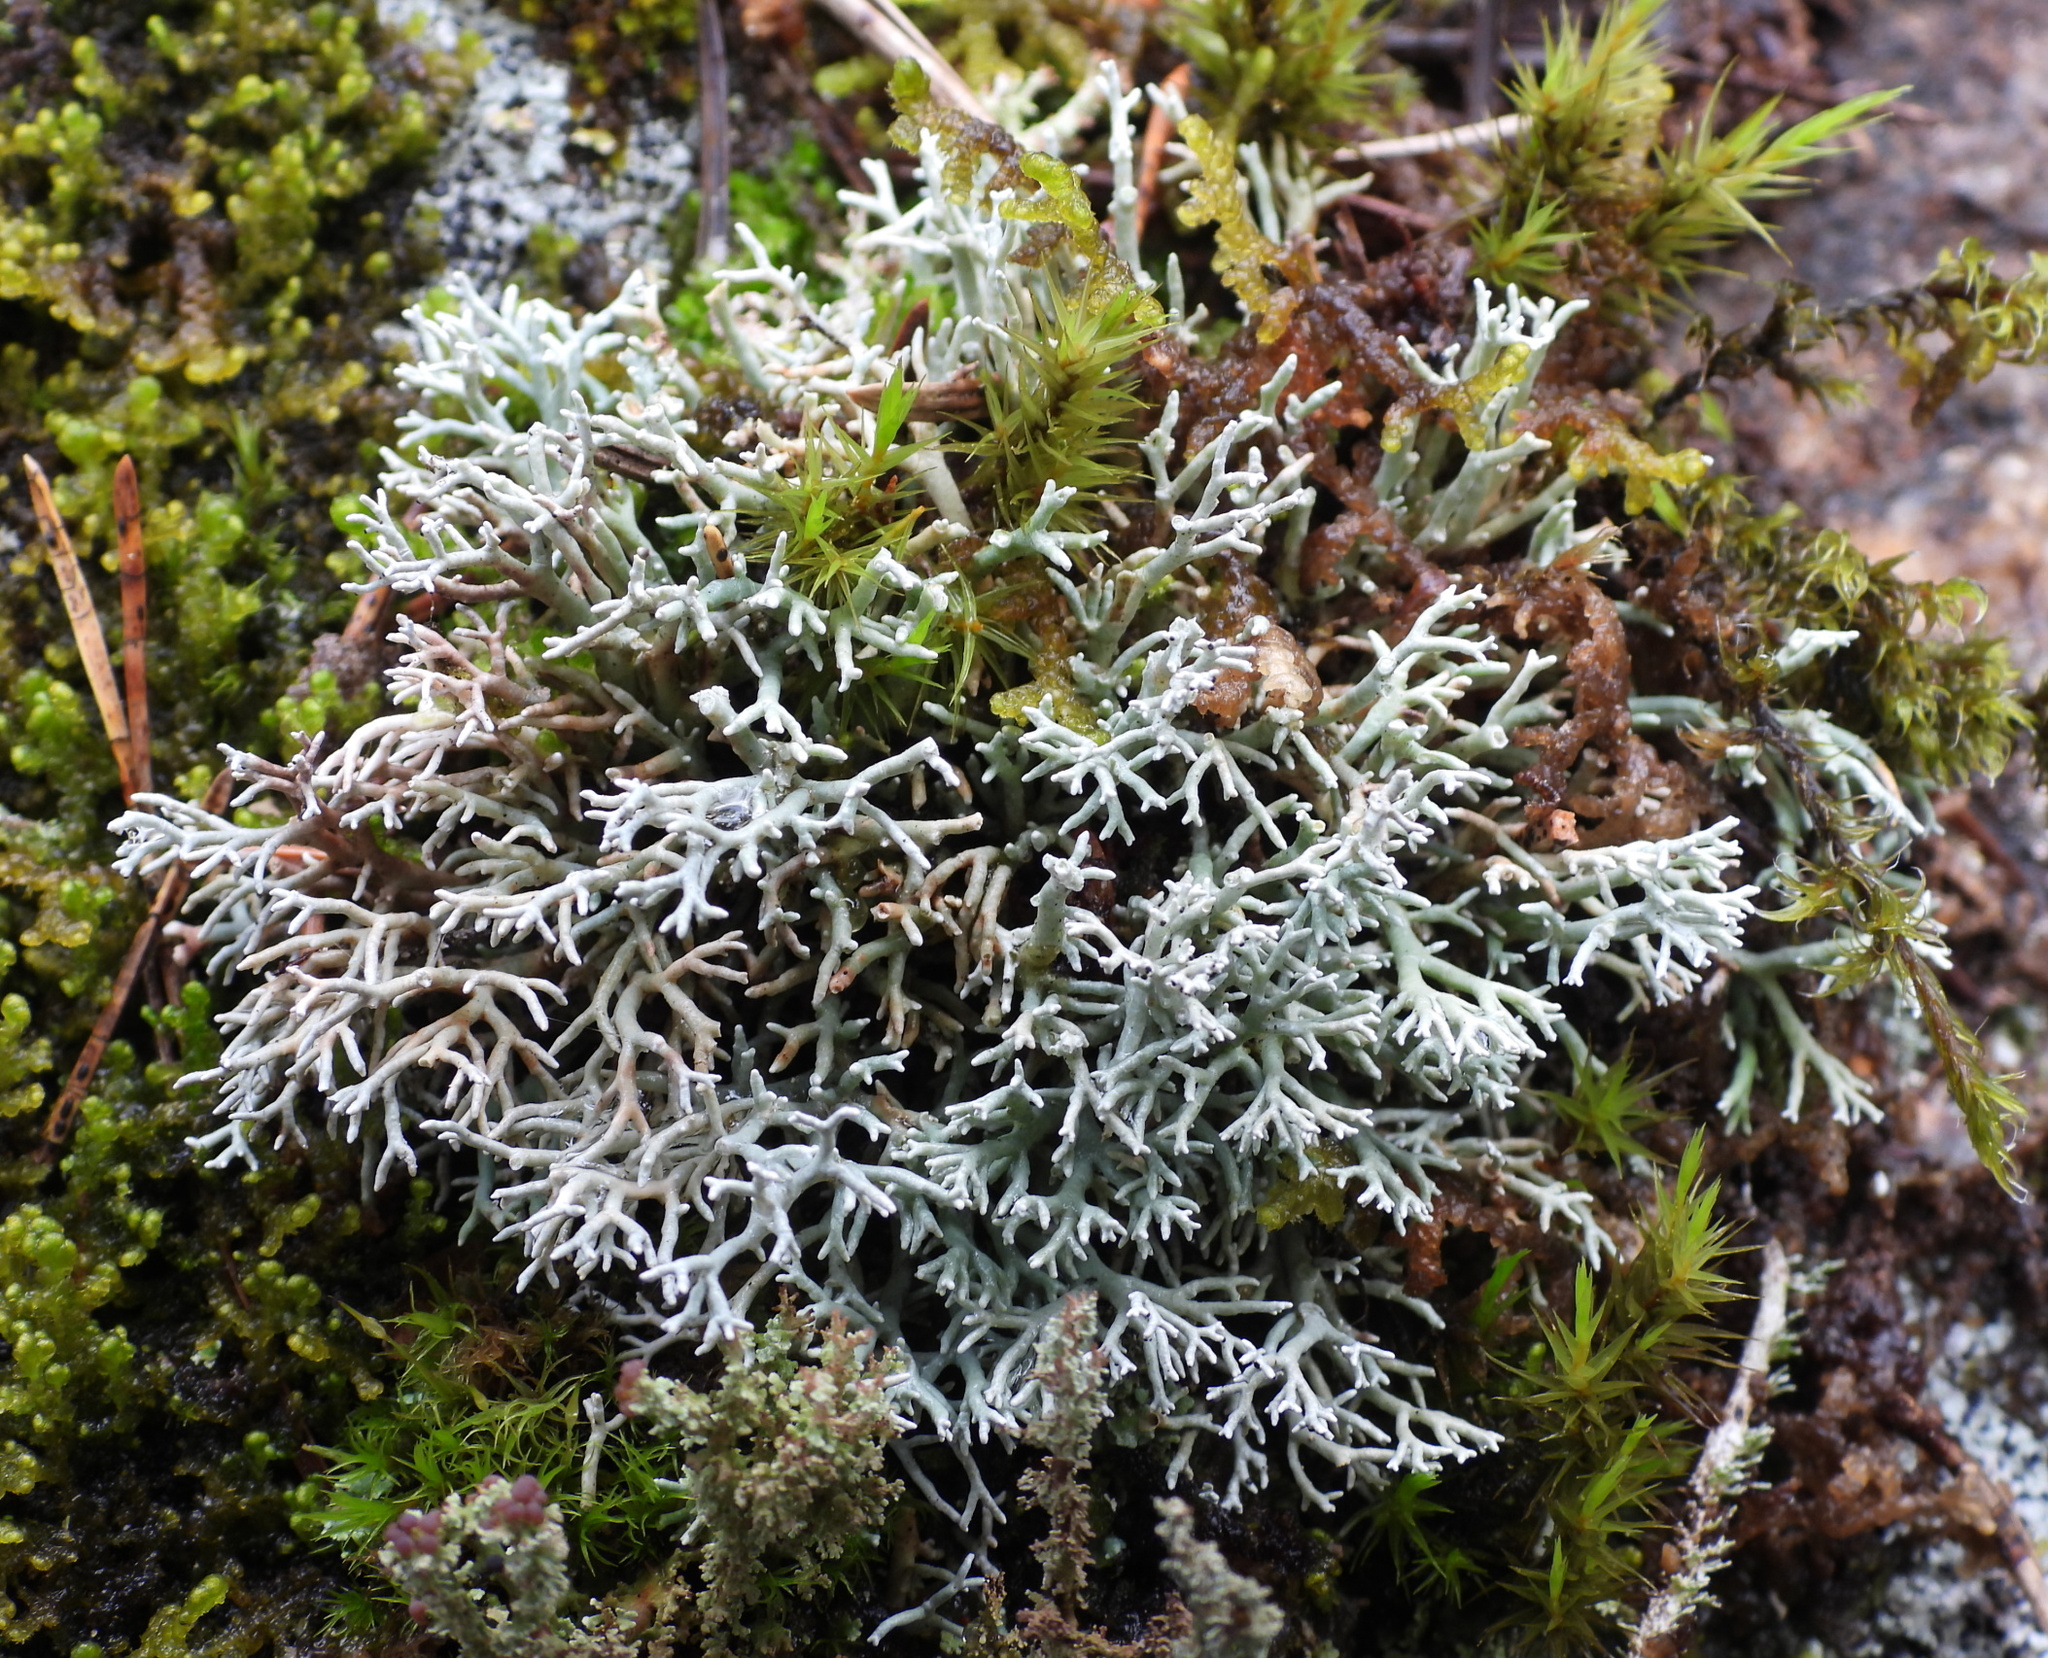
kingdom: Fungi
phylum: Ascomycota
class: Lecanoromycetes
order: Lecanorales
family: Sphaerophoraceae
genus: Sphaerophorus
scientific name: Sphaerophorus fragilis
